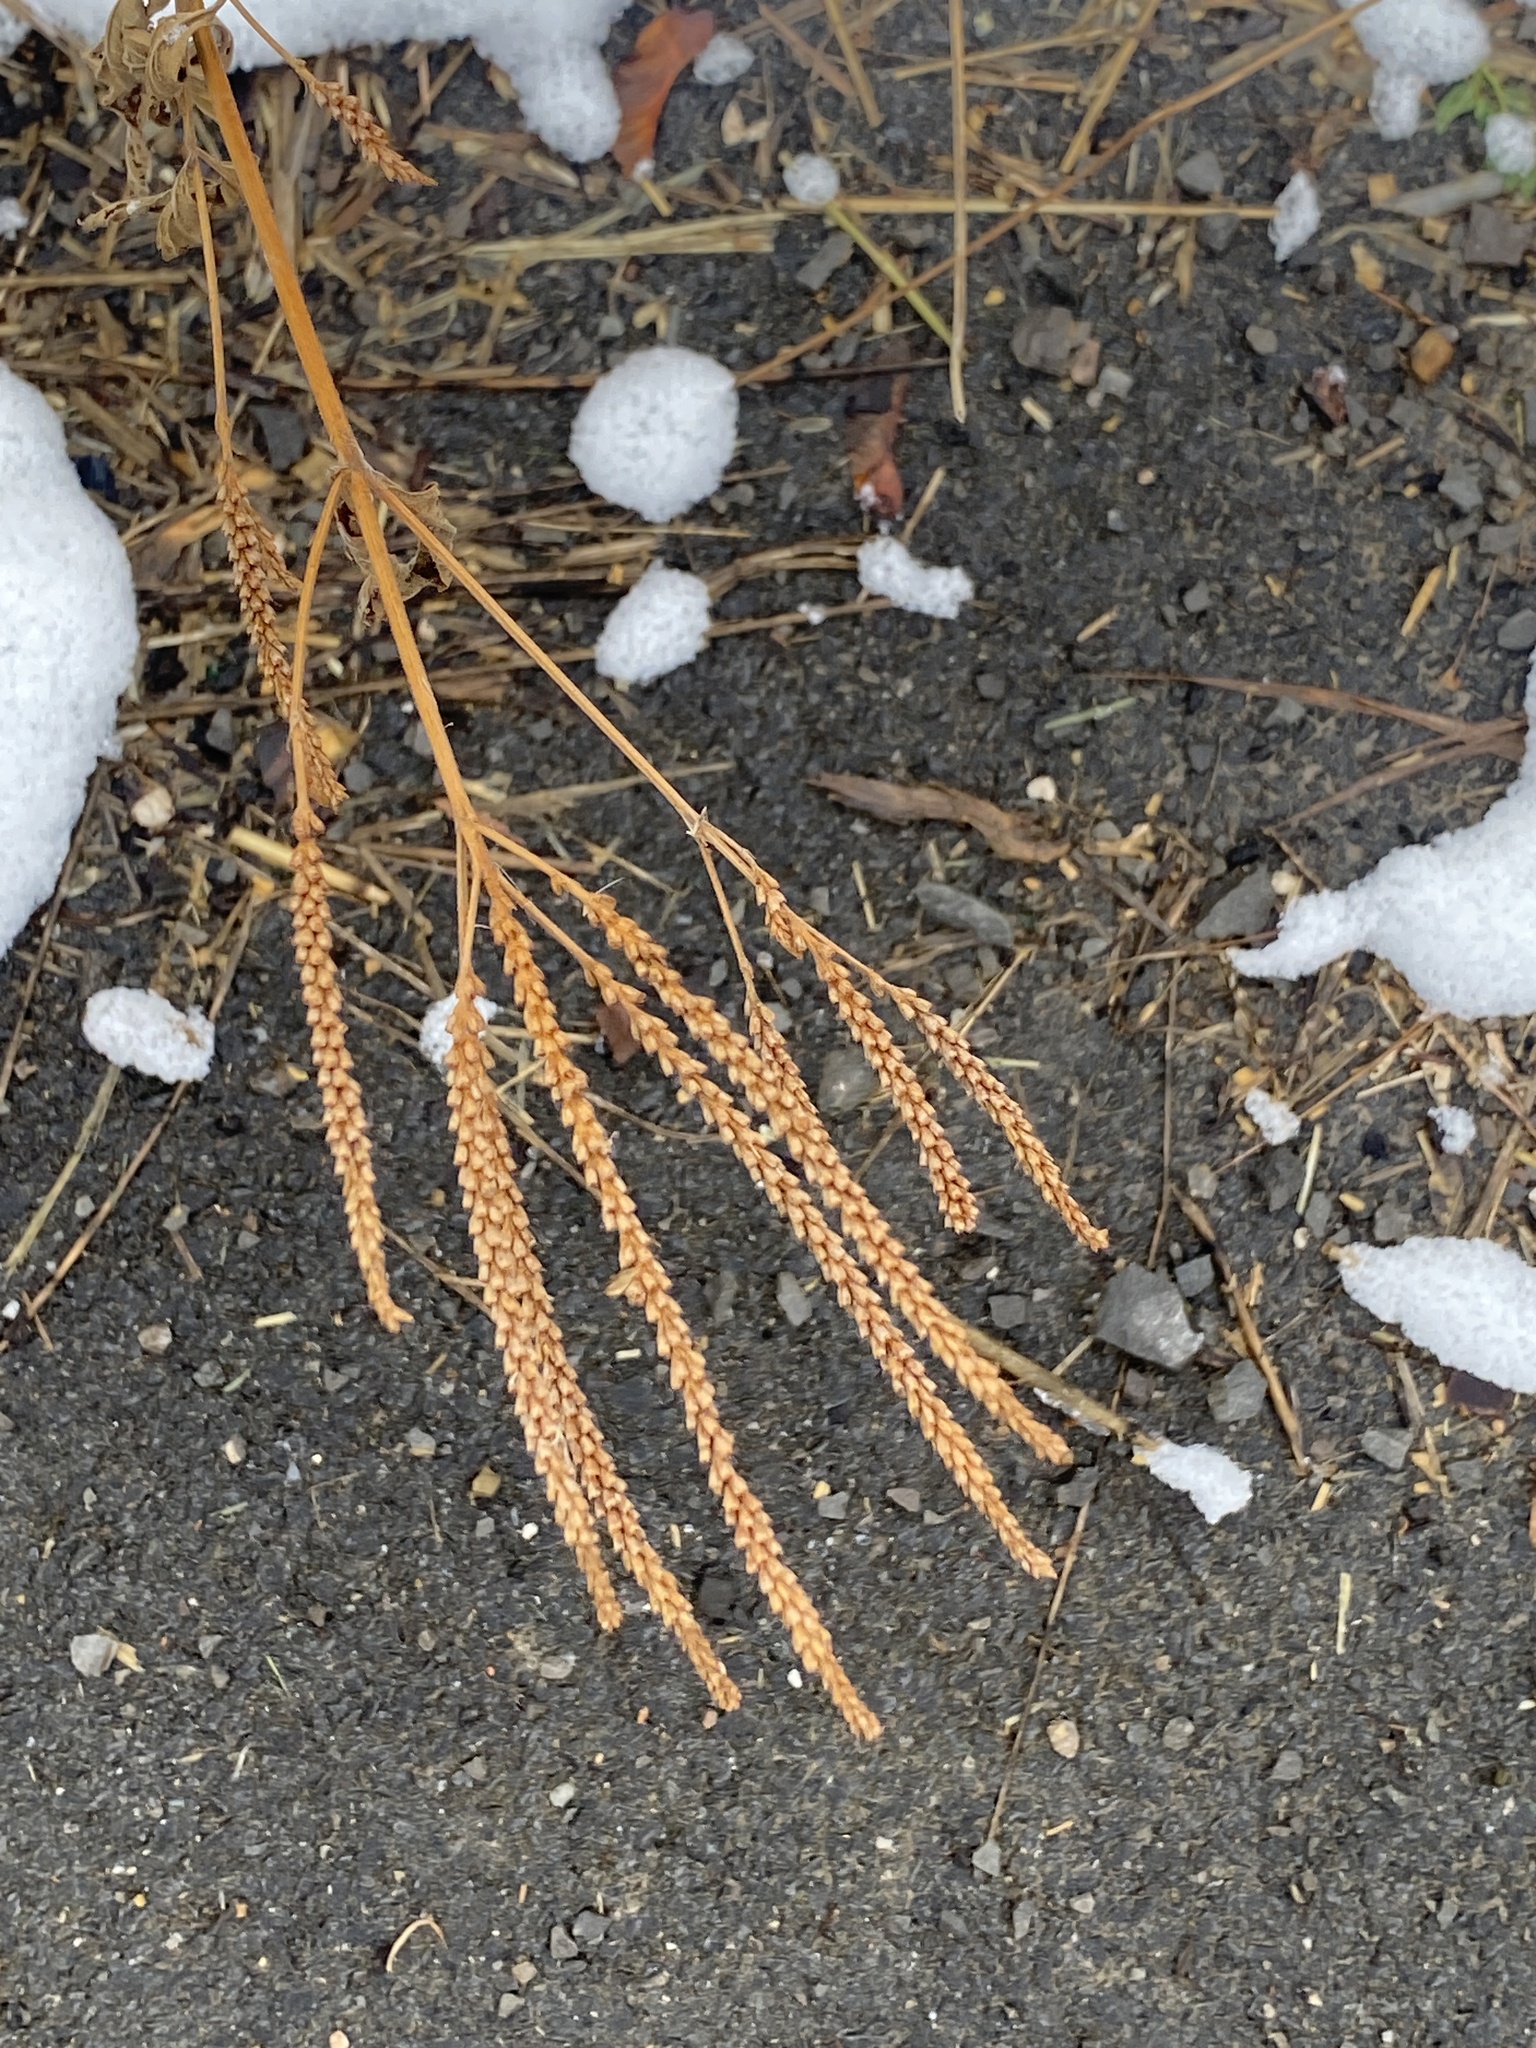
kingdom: Plantae
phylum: Tracheophyta
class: Magnoliopsida
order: Lamiales
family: Verbenaceae
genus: Verbena
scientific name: Verbena hastata
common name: American blue vervain
